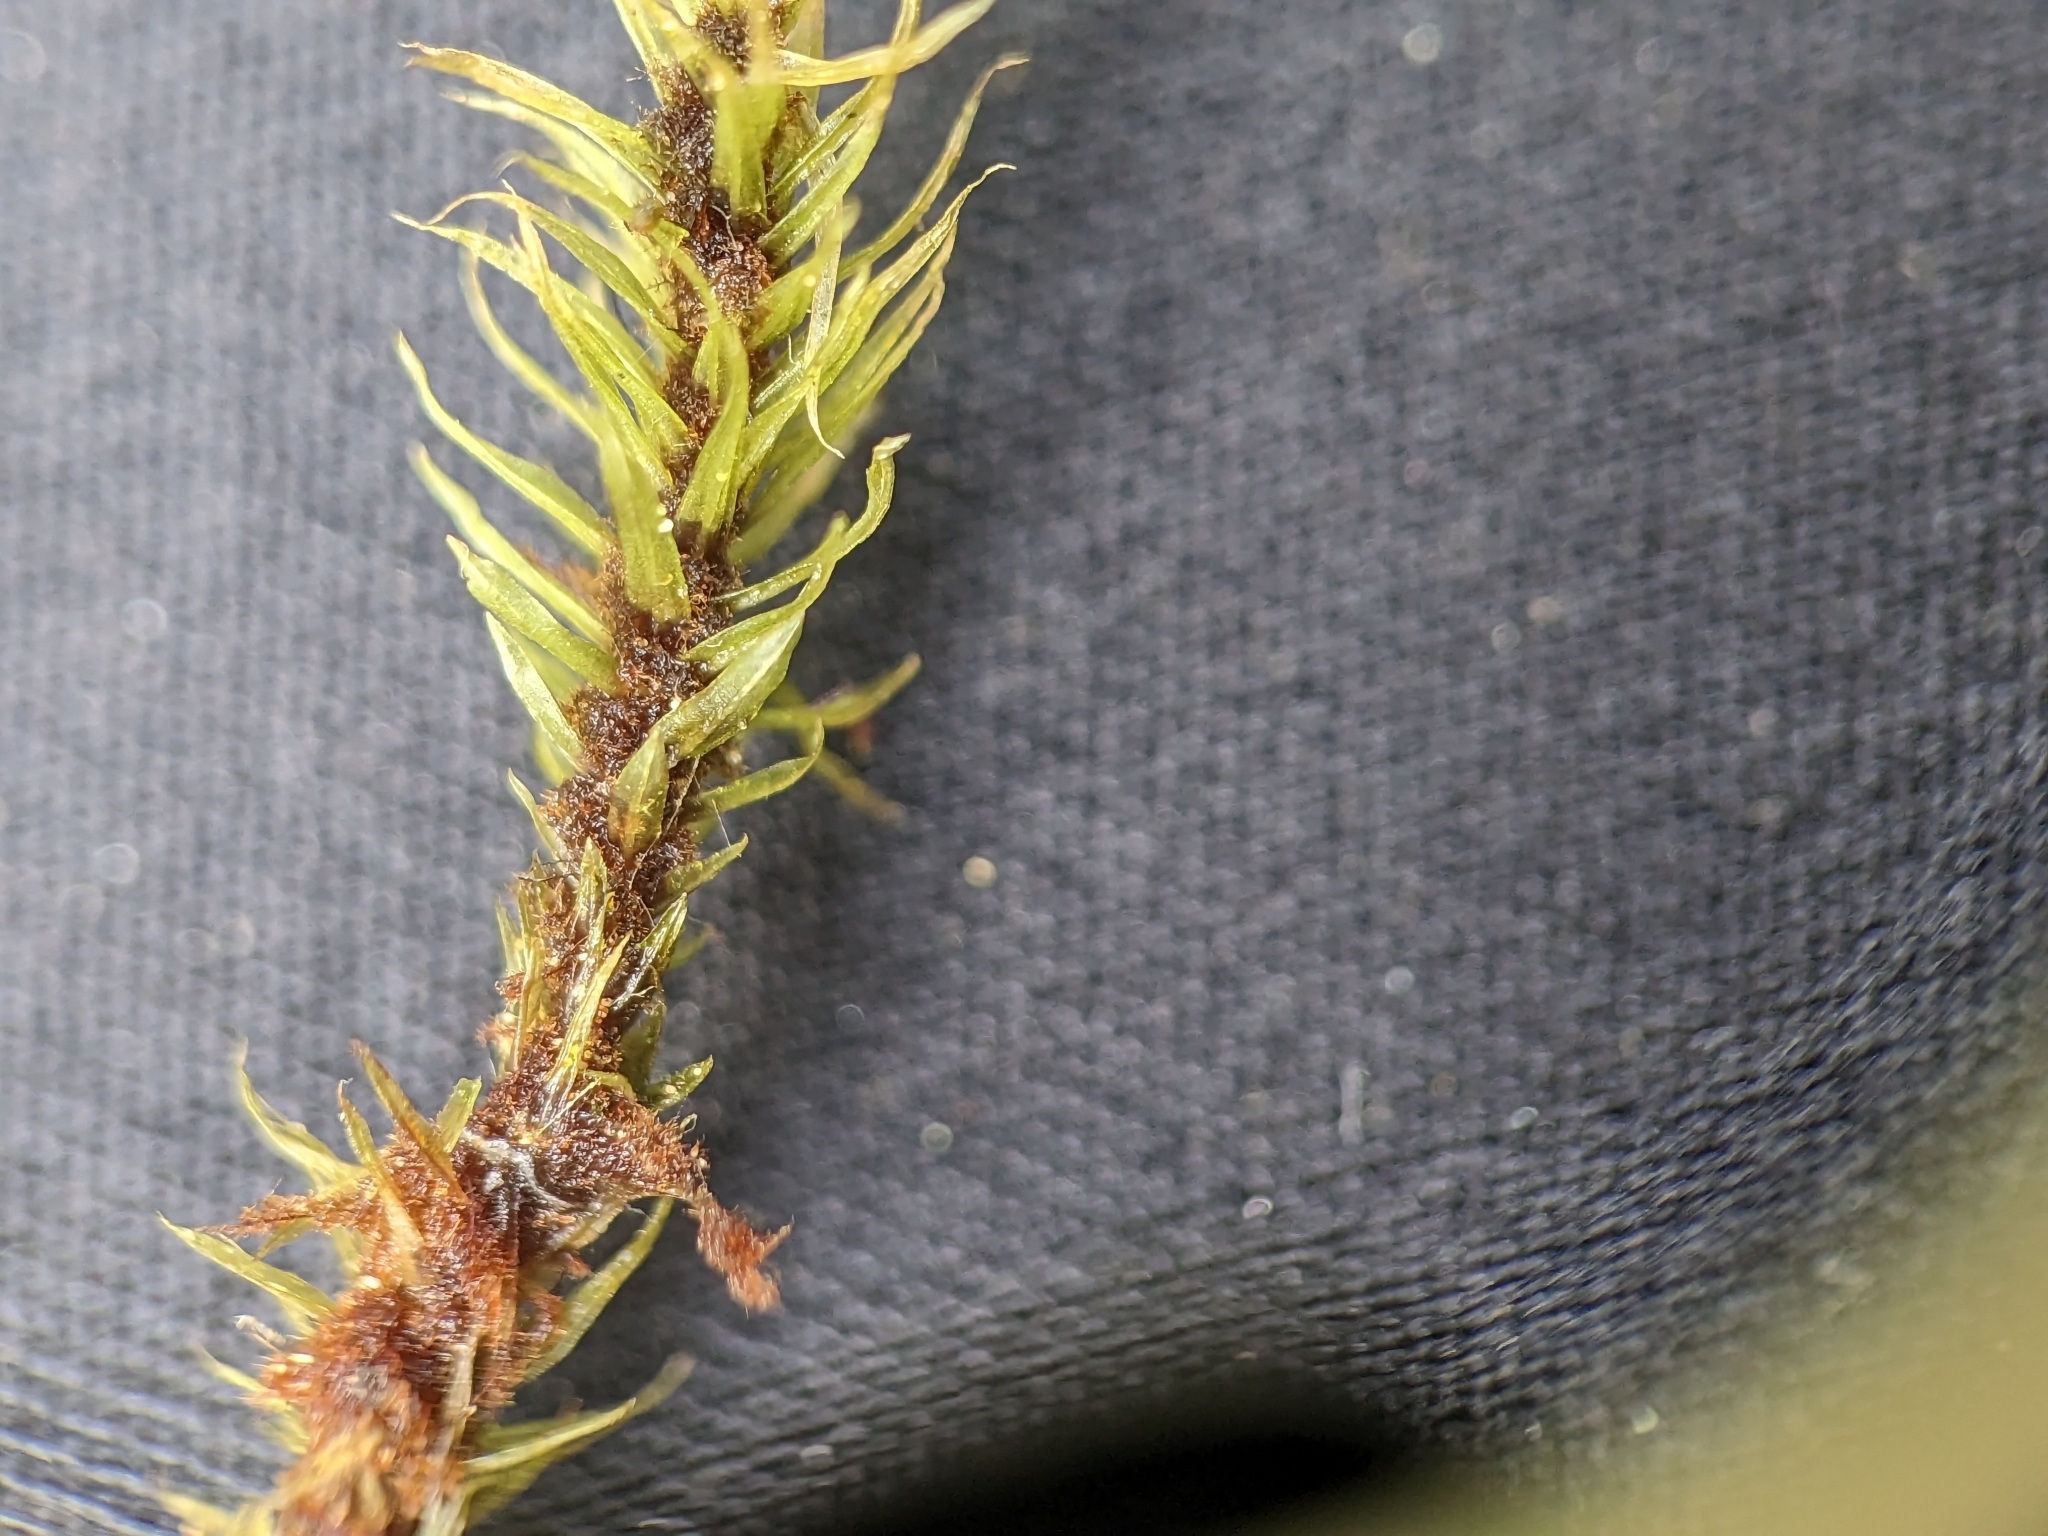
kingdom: Plantae
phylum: Bryophyta
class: Bryopsida
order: Aulacomniales
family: Aulacomniaceae
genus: Aulacomnium
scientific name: Aulacomnium palustre
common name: Bog groove-moss
